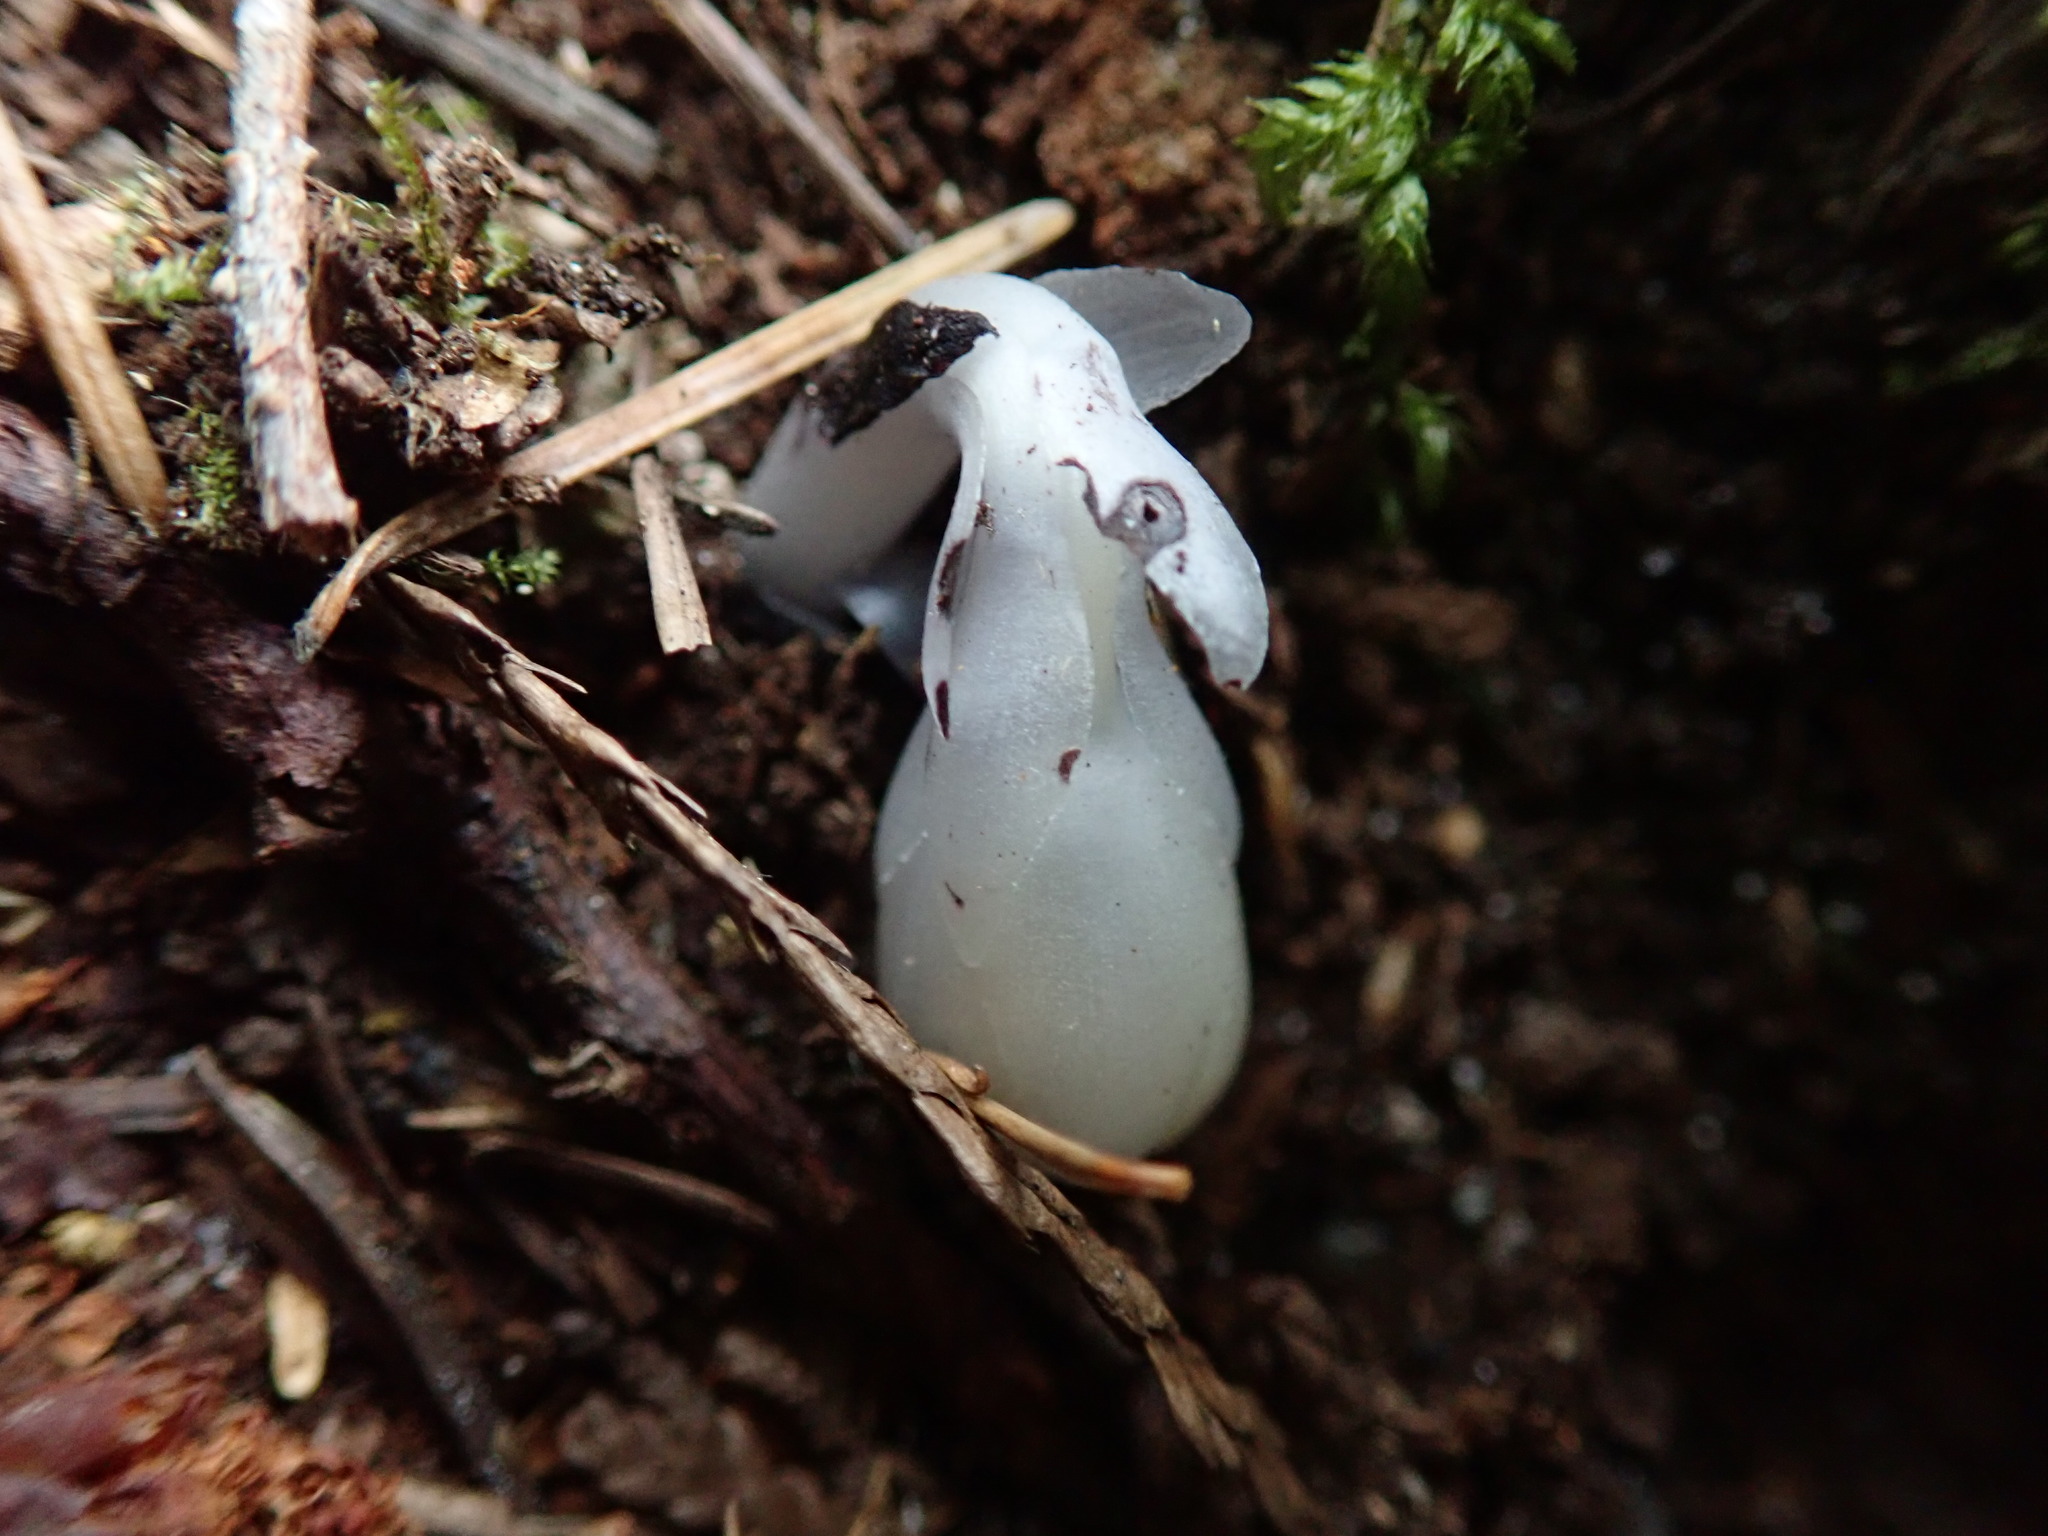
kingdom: Plantae
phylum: Tracheophyta
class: Magnoliopsida
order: Ericales
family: Ericaceae
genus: Monotropa
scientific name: Monotropa uniflora
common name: Convulsion root
